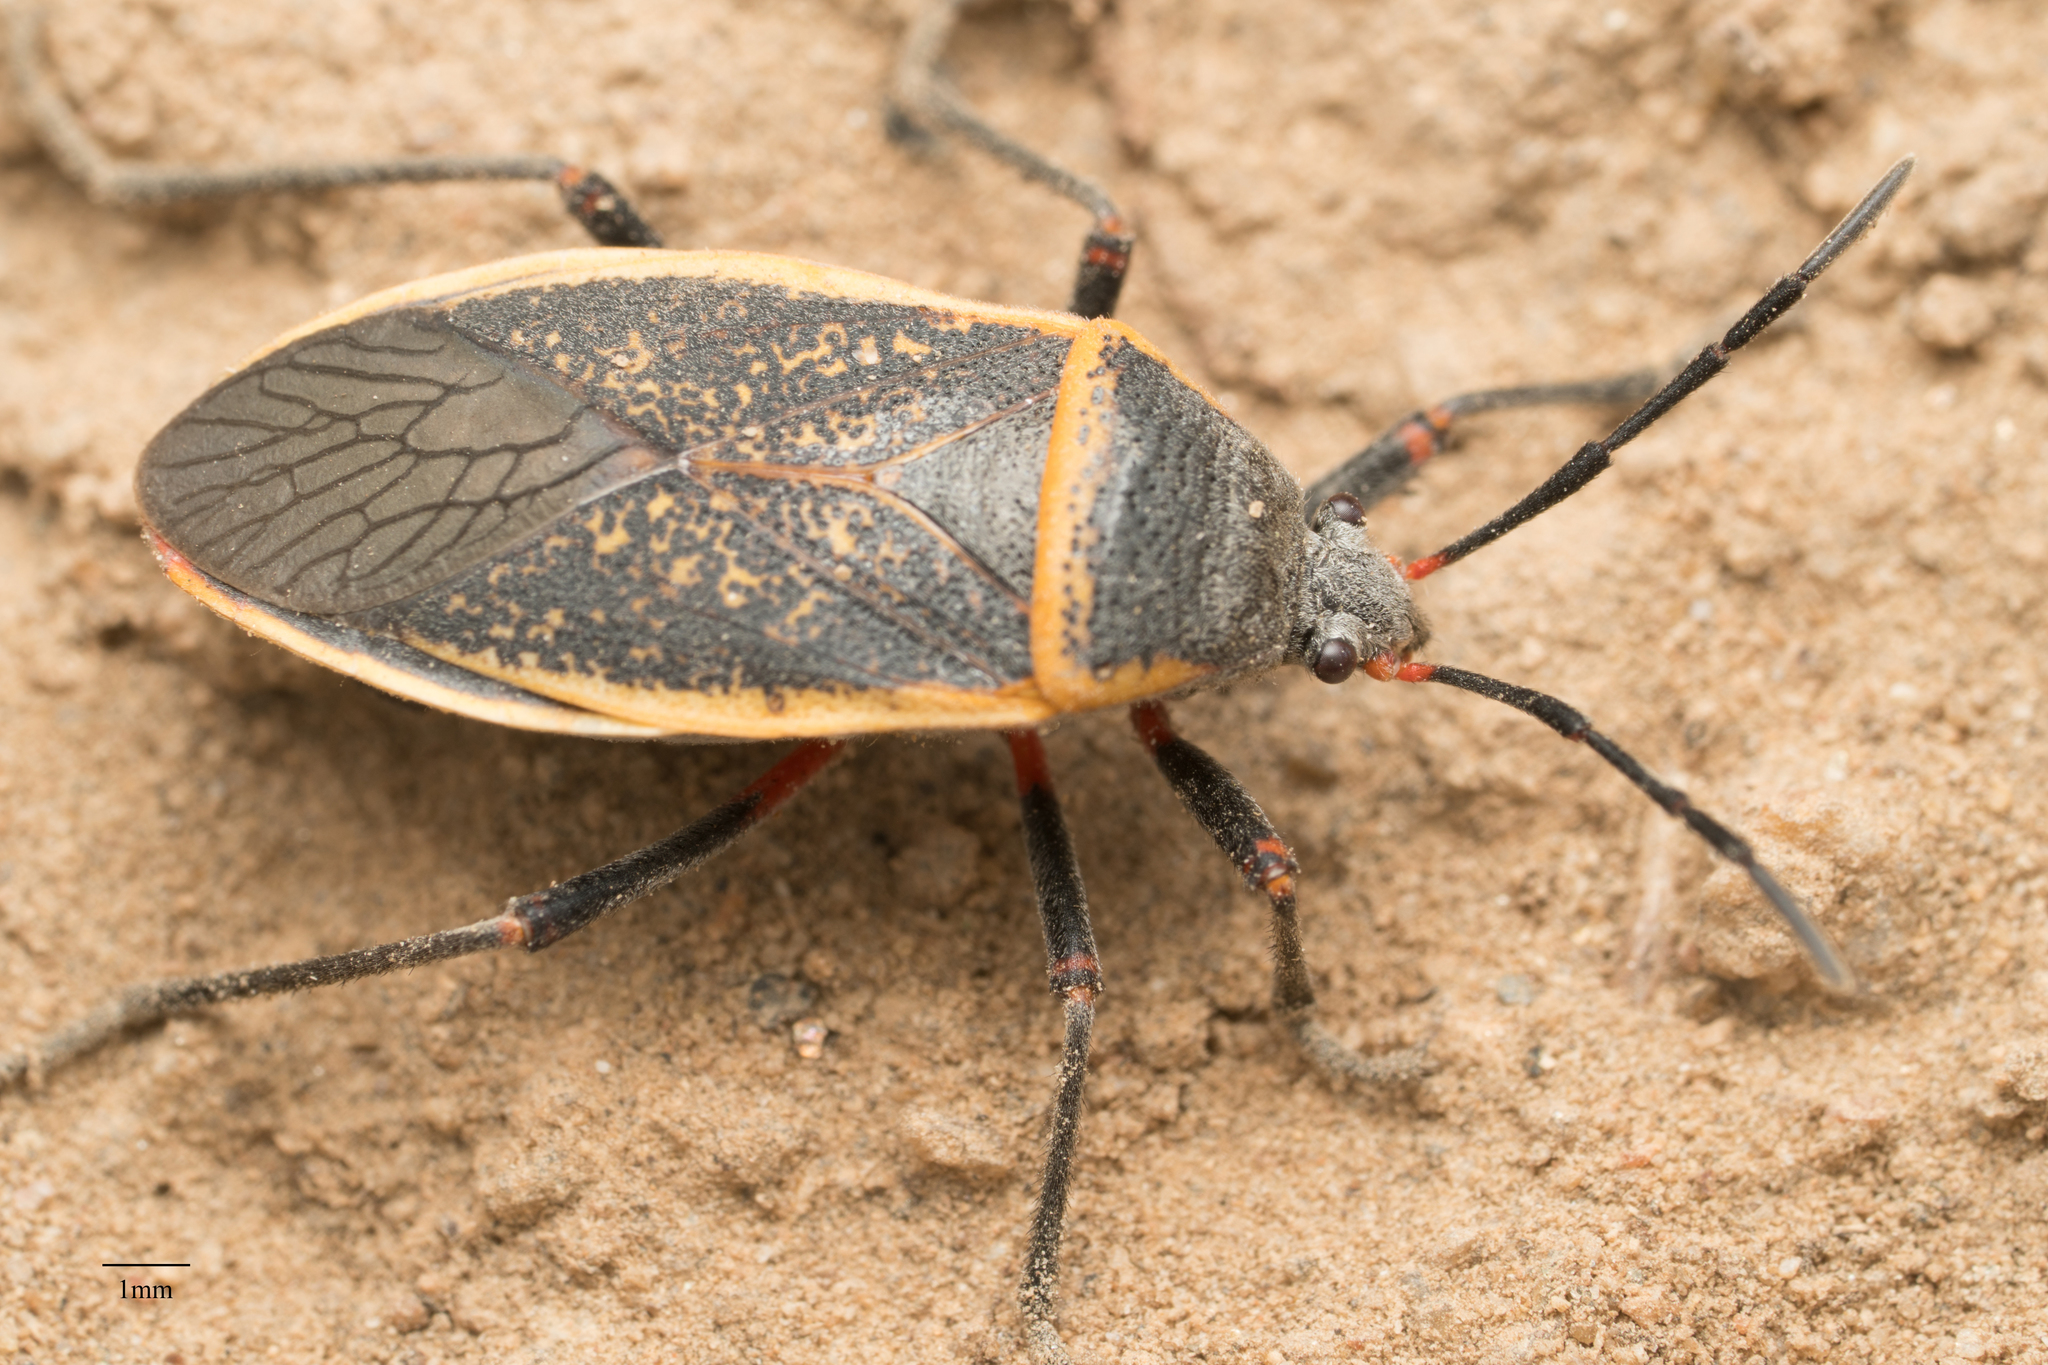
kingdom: Animalia
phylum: Arthropoda
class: Insecta
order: Hemiptera
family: Largidae
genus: Largus
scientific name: Largus californicus
